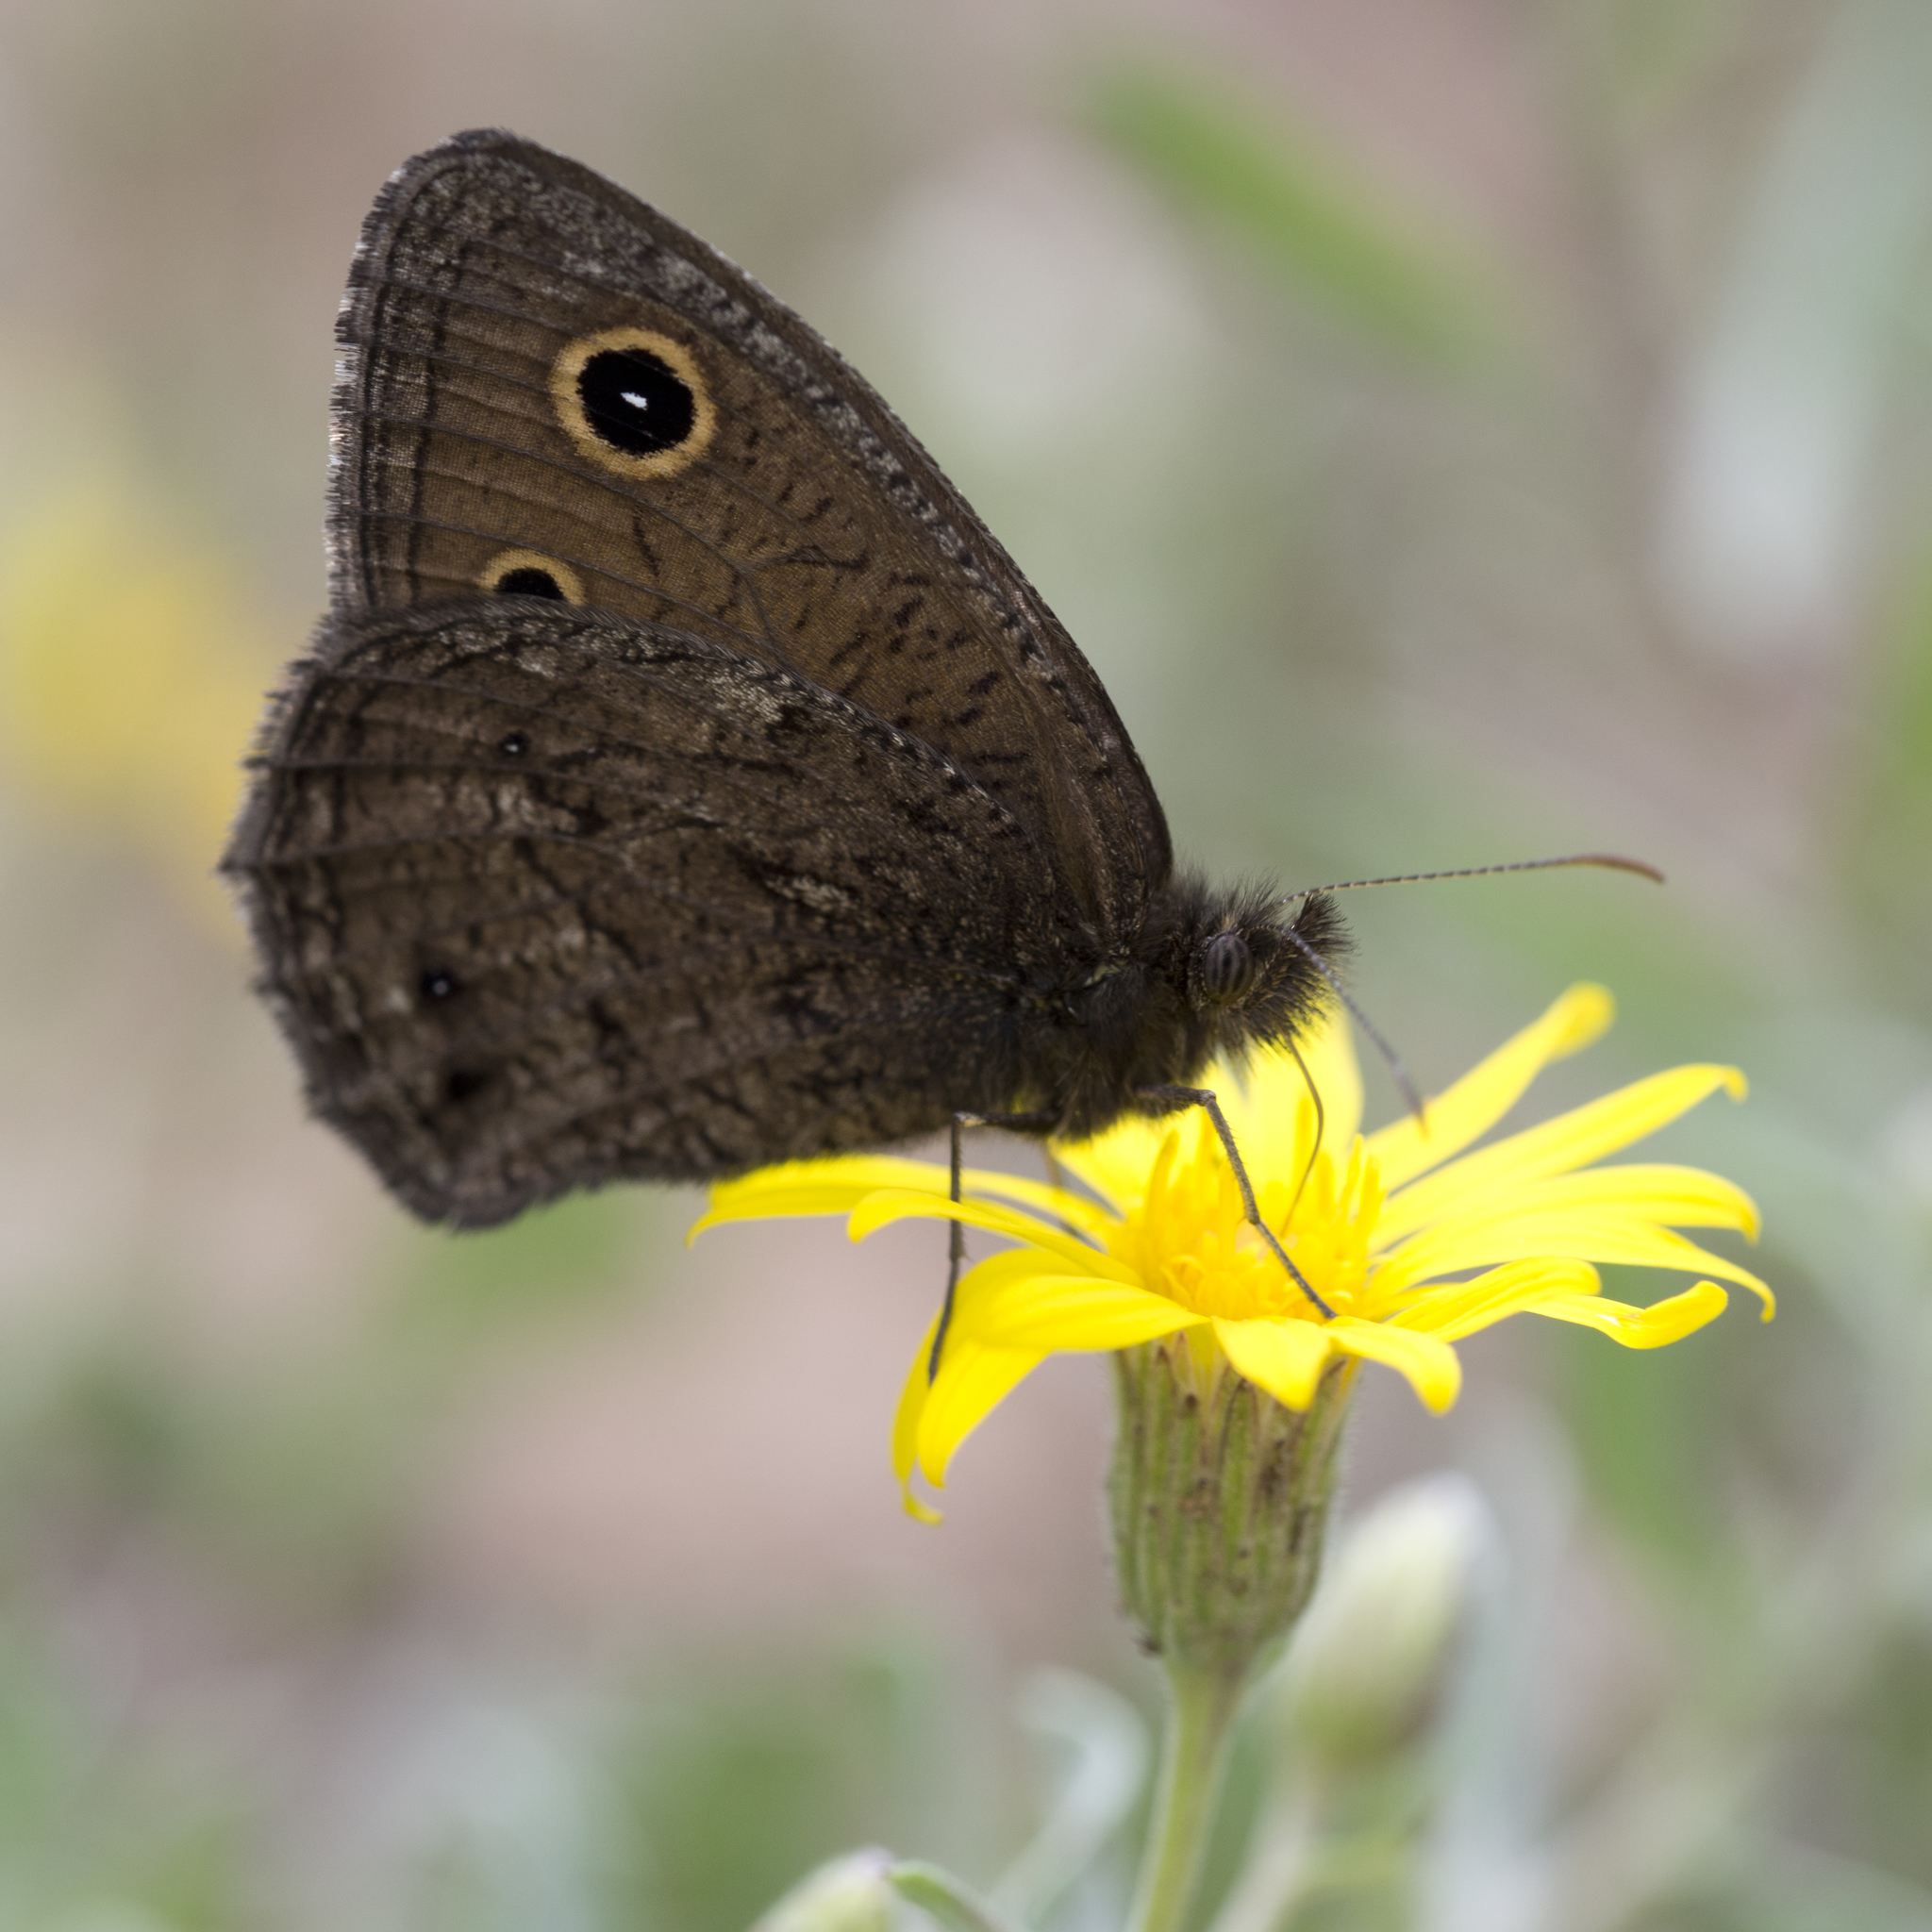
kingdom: Animalia
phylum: Arthropoda
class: Insecta
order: Lepidoptera
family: Nymphalidae
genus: Cercyonis
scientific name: Cercyonis oetus
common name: Small wood-nymph
